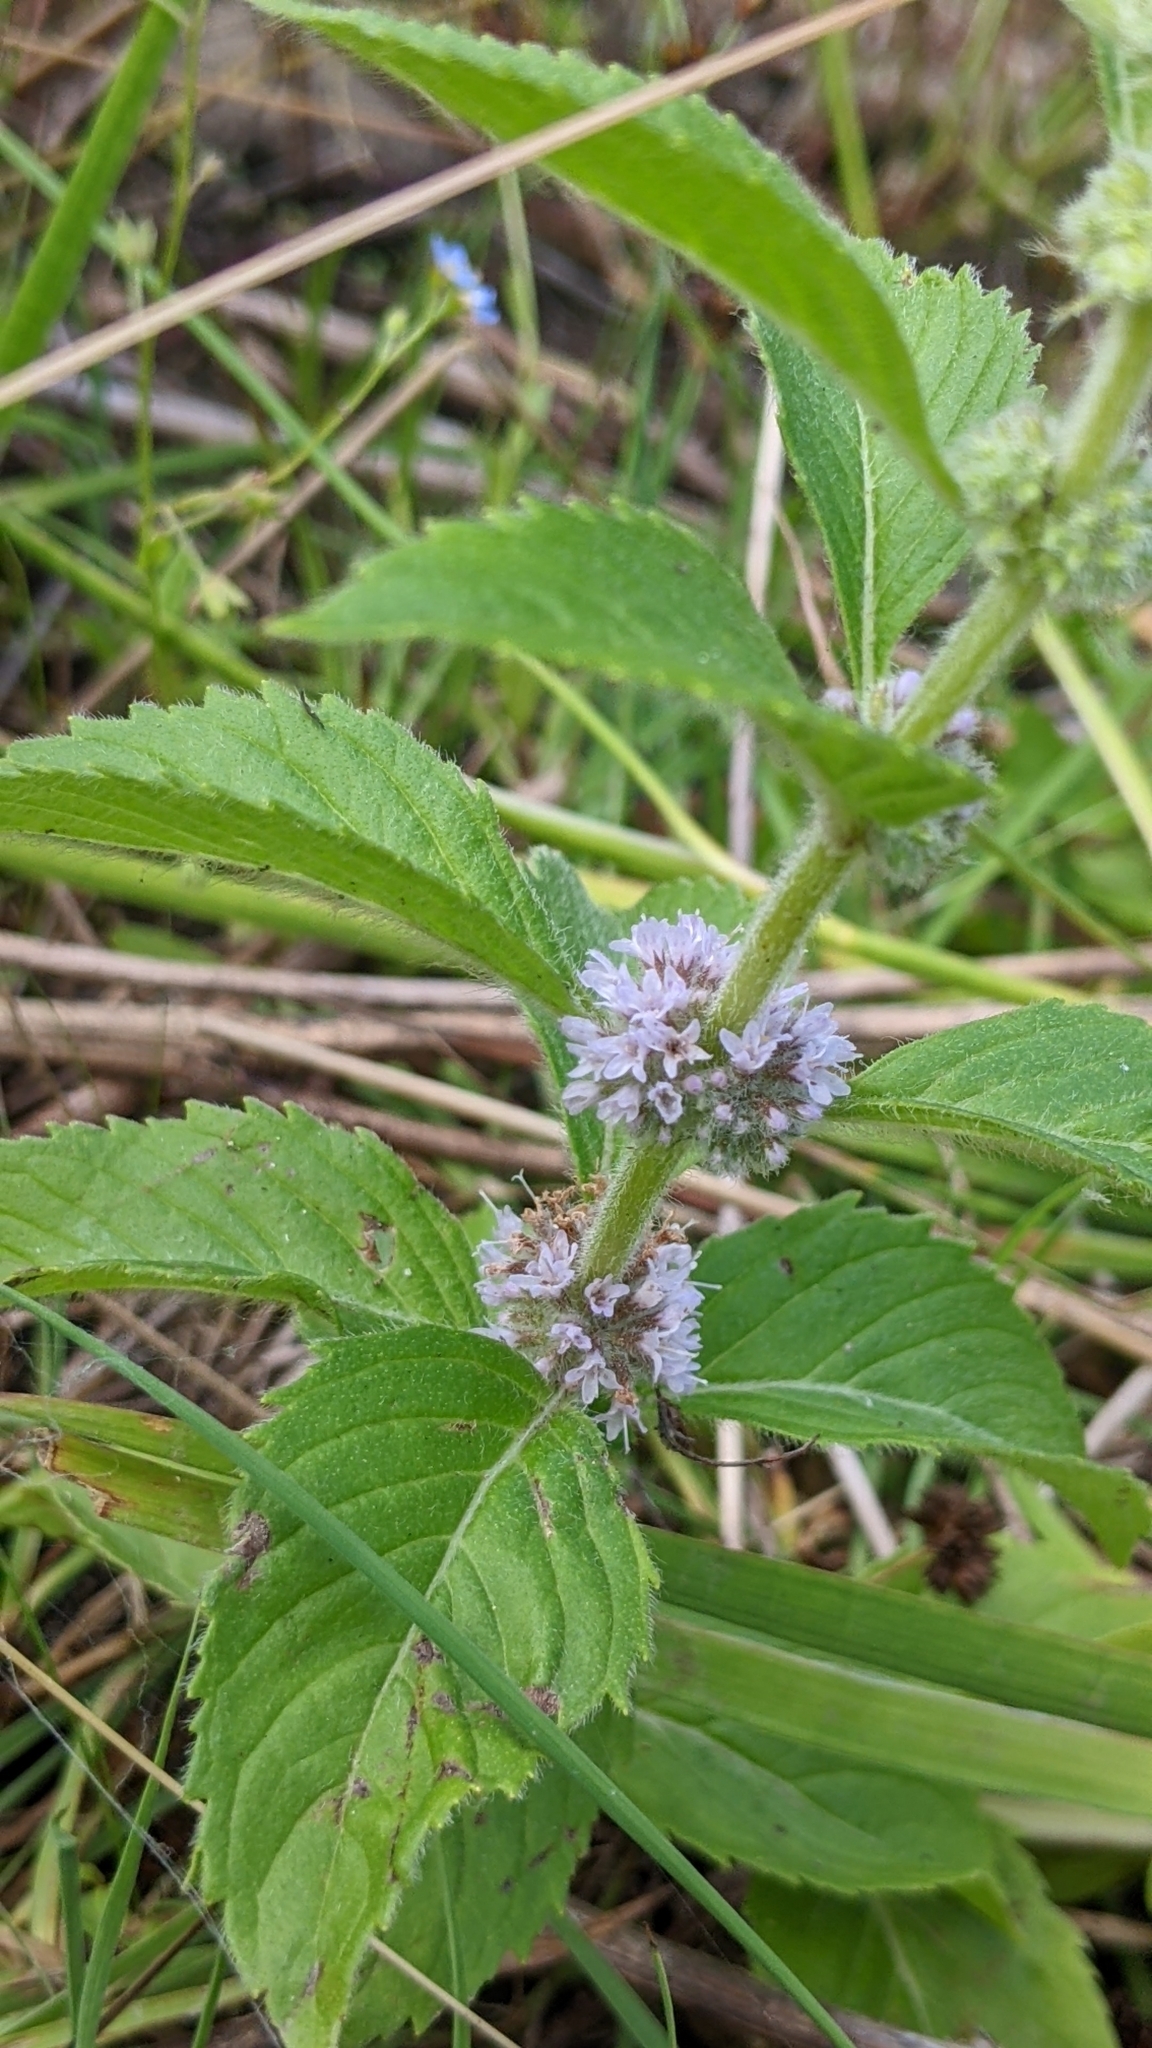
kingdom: Plantae
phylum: Tracheophyta
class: Magnoliopsida
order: Lamiales
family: Lamiaceae
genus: Mentha
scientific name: Mentha canadensis
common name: American corn mint
